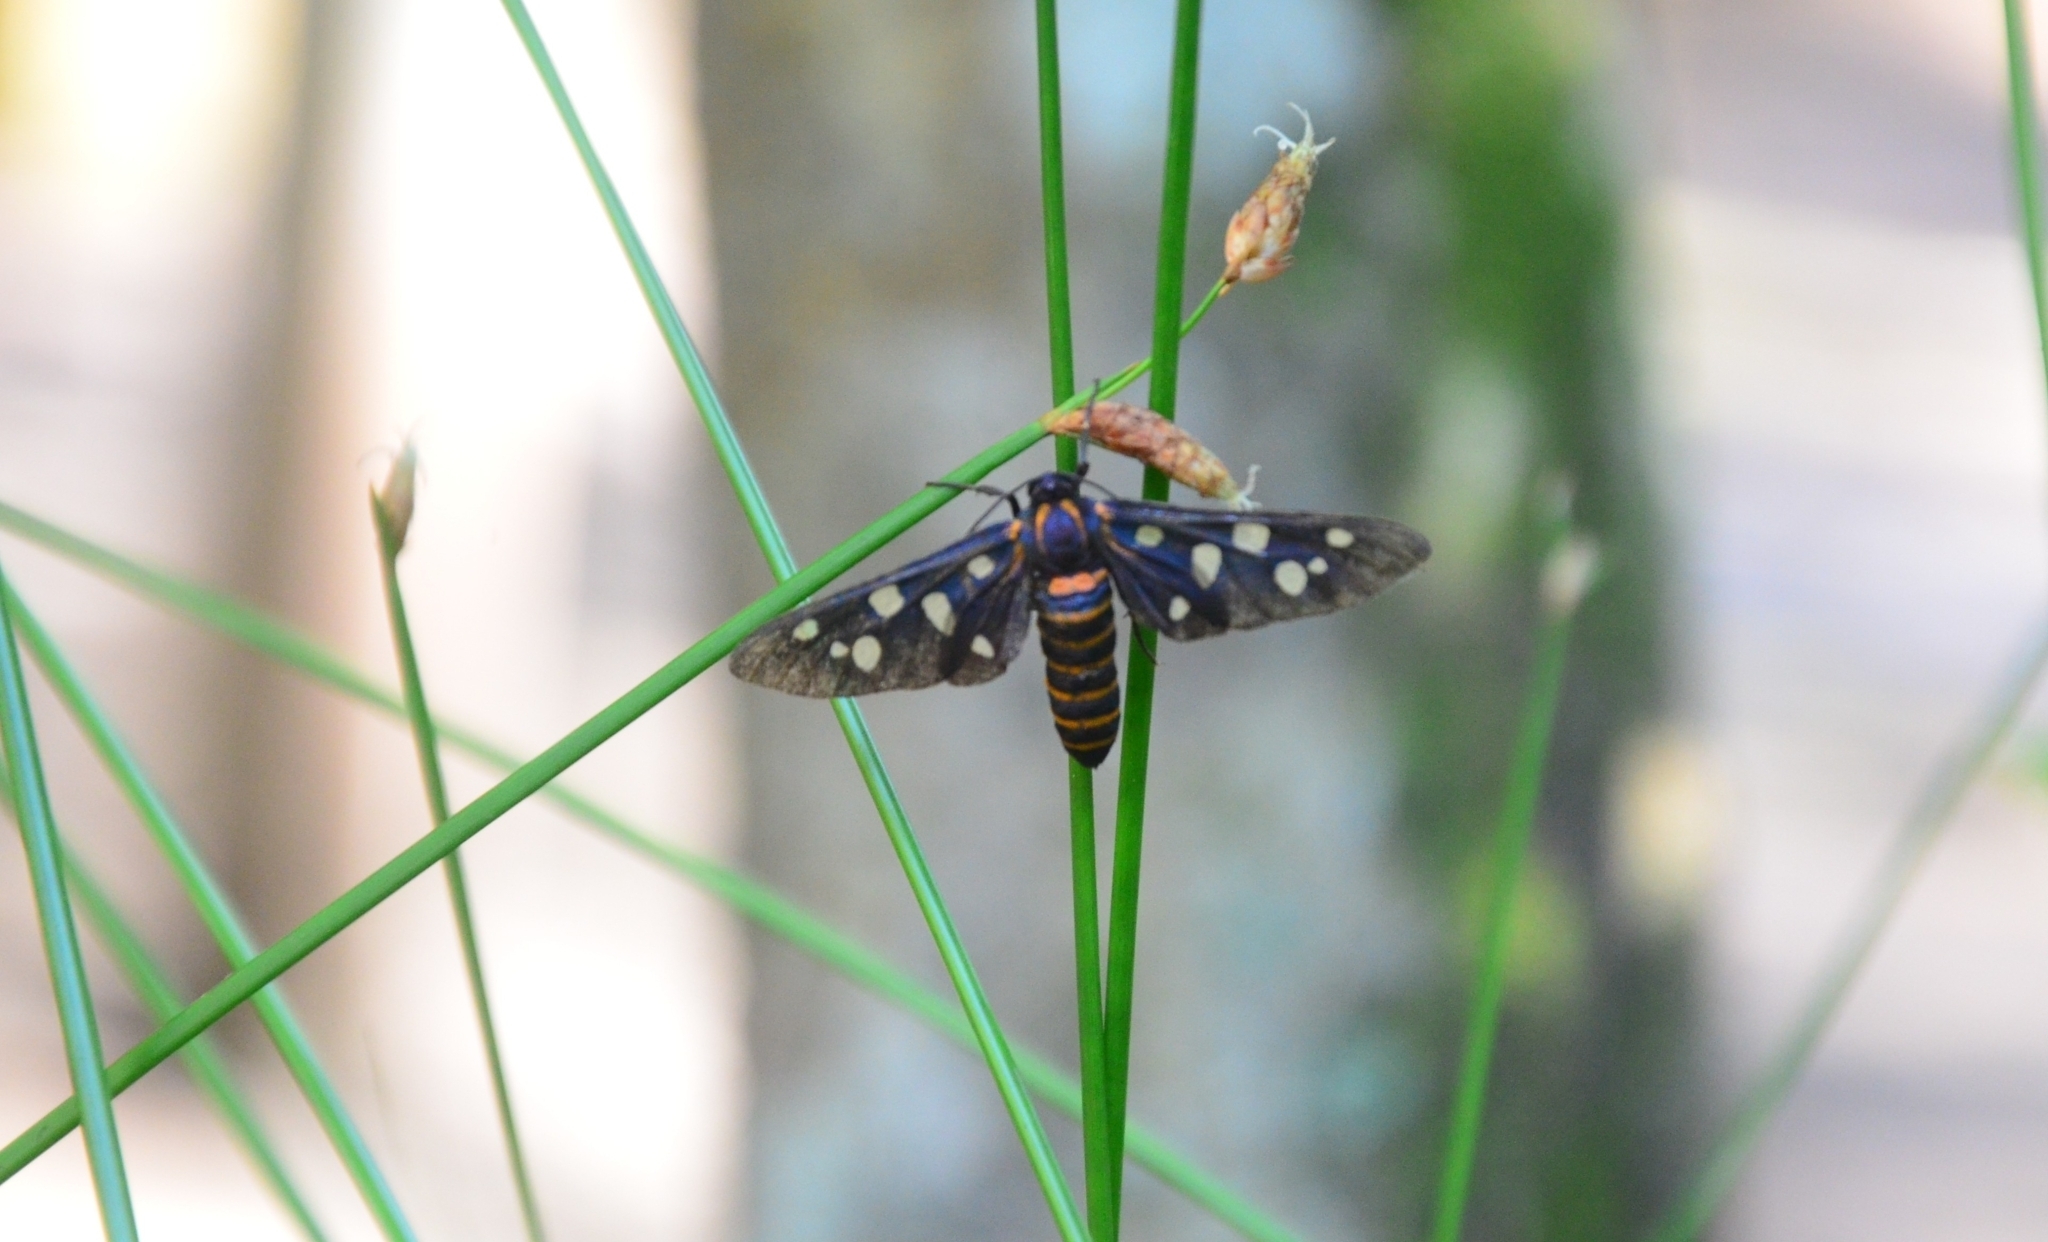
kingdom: Animalia
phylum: Arthropoda
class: Insecta
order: Lepidoptera
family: Erebidae
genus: Amata
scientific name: Amata passalis
